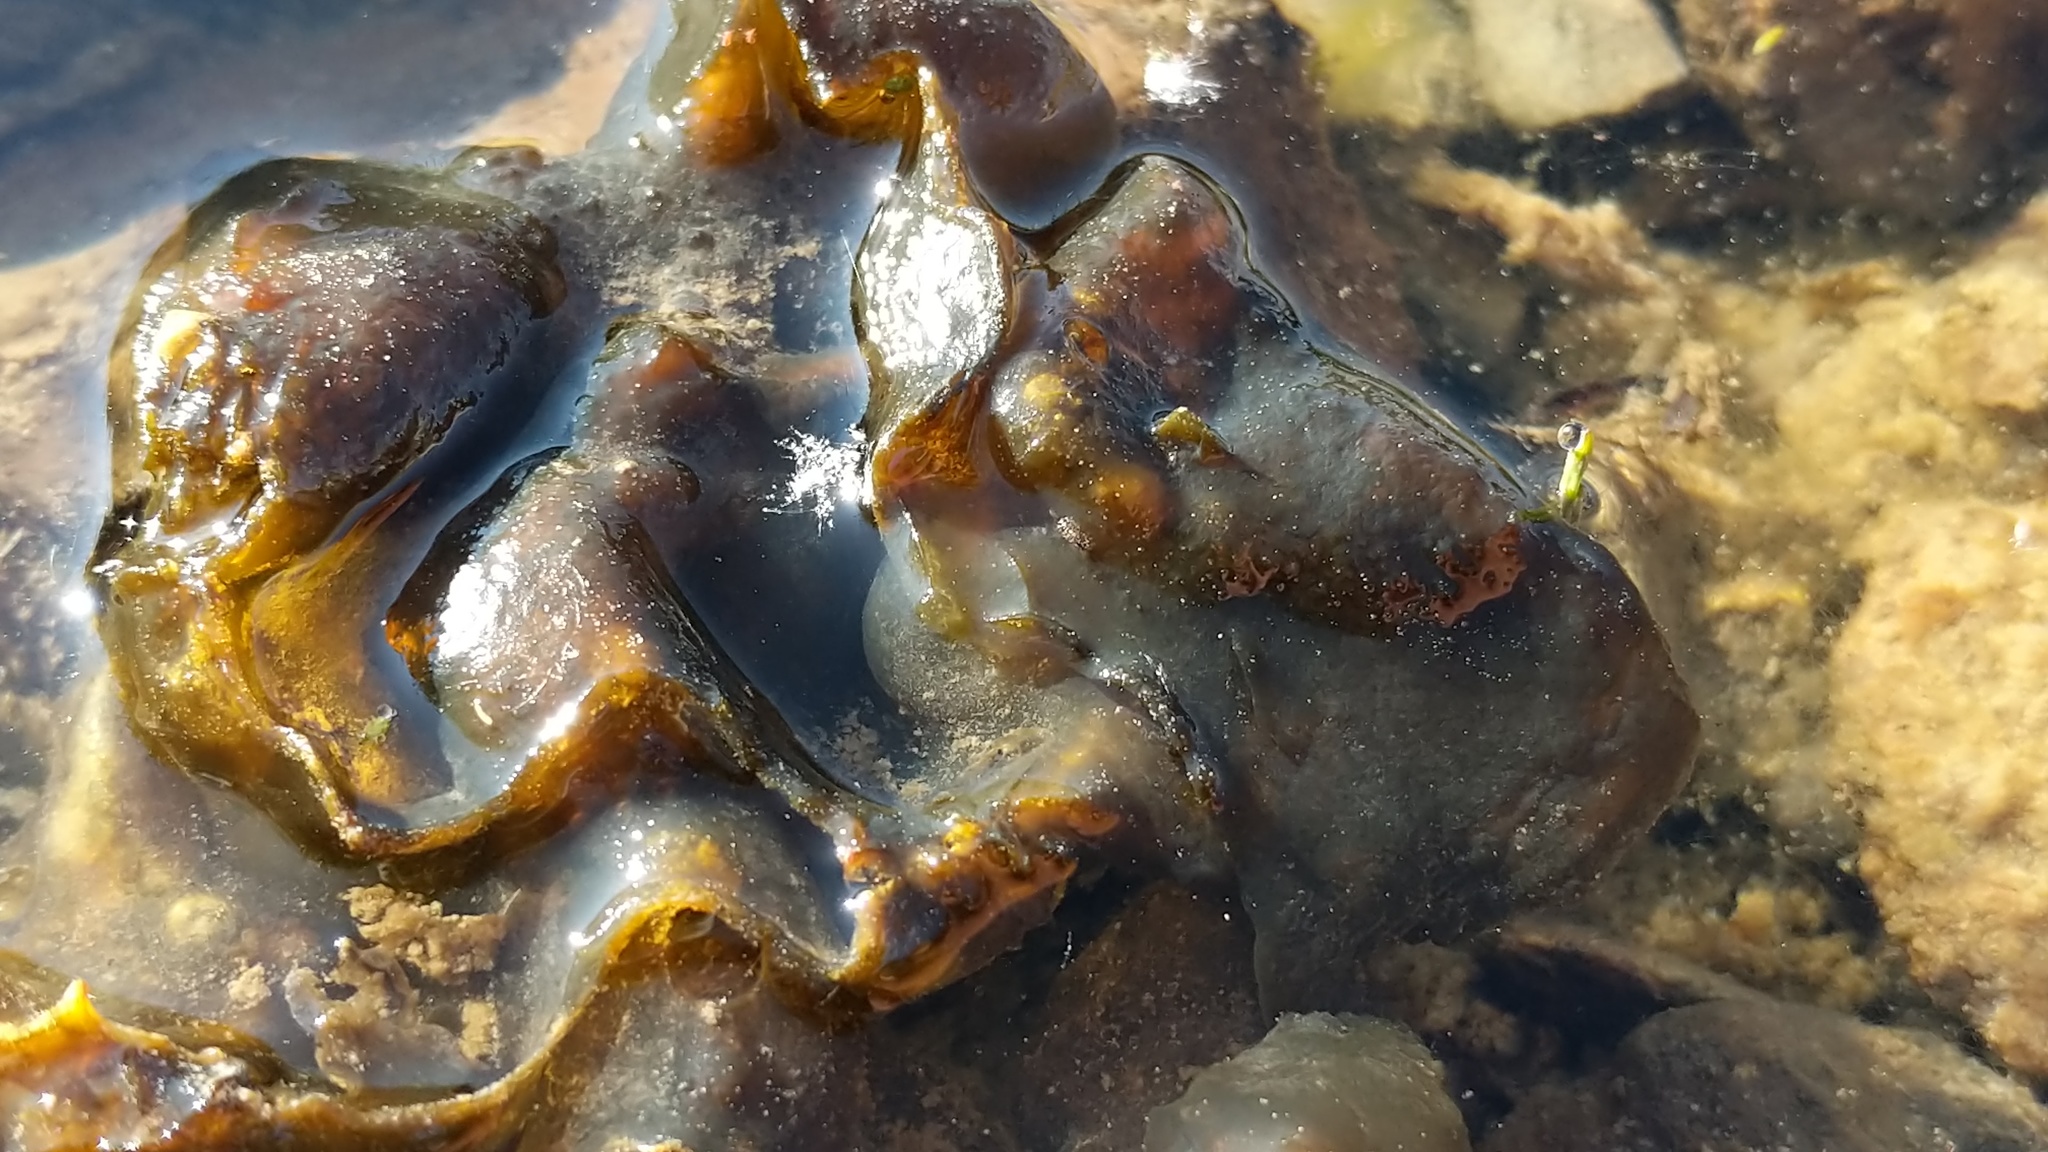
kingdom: Bacteria
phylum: Cyanobacteria
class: Cyanobacteriia
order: Cyanobacteriales
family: Nostocaceae
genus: Nostoc
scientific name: Nostoc commune
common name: Star jelly
